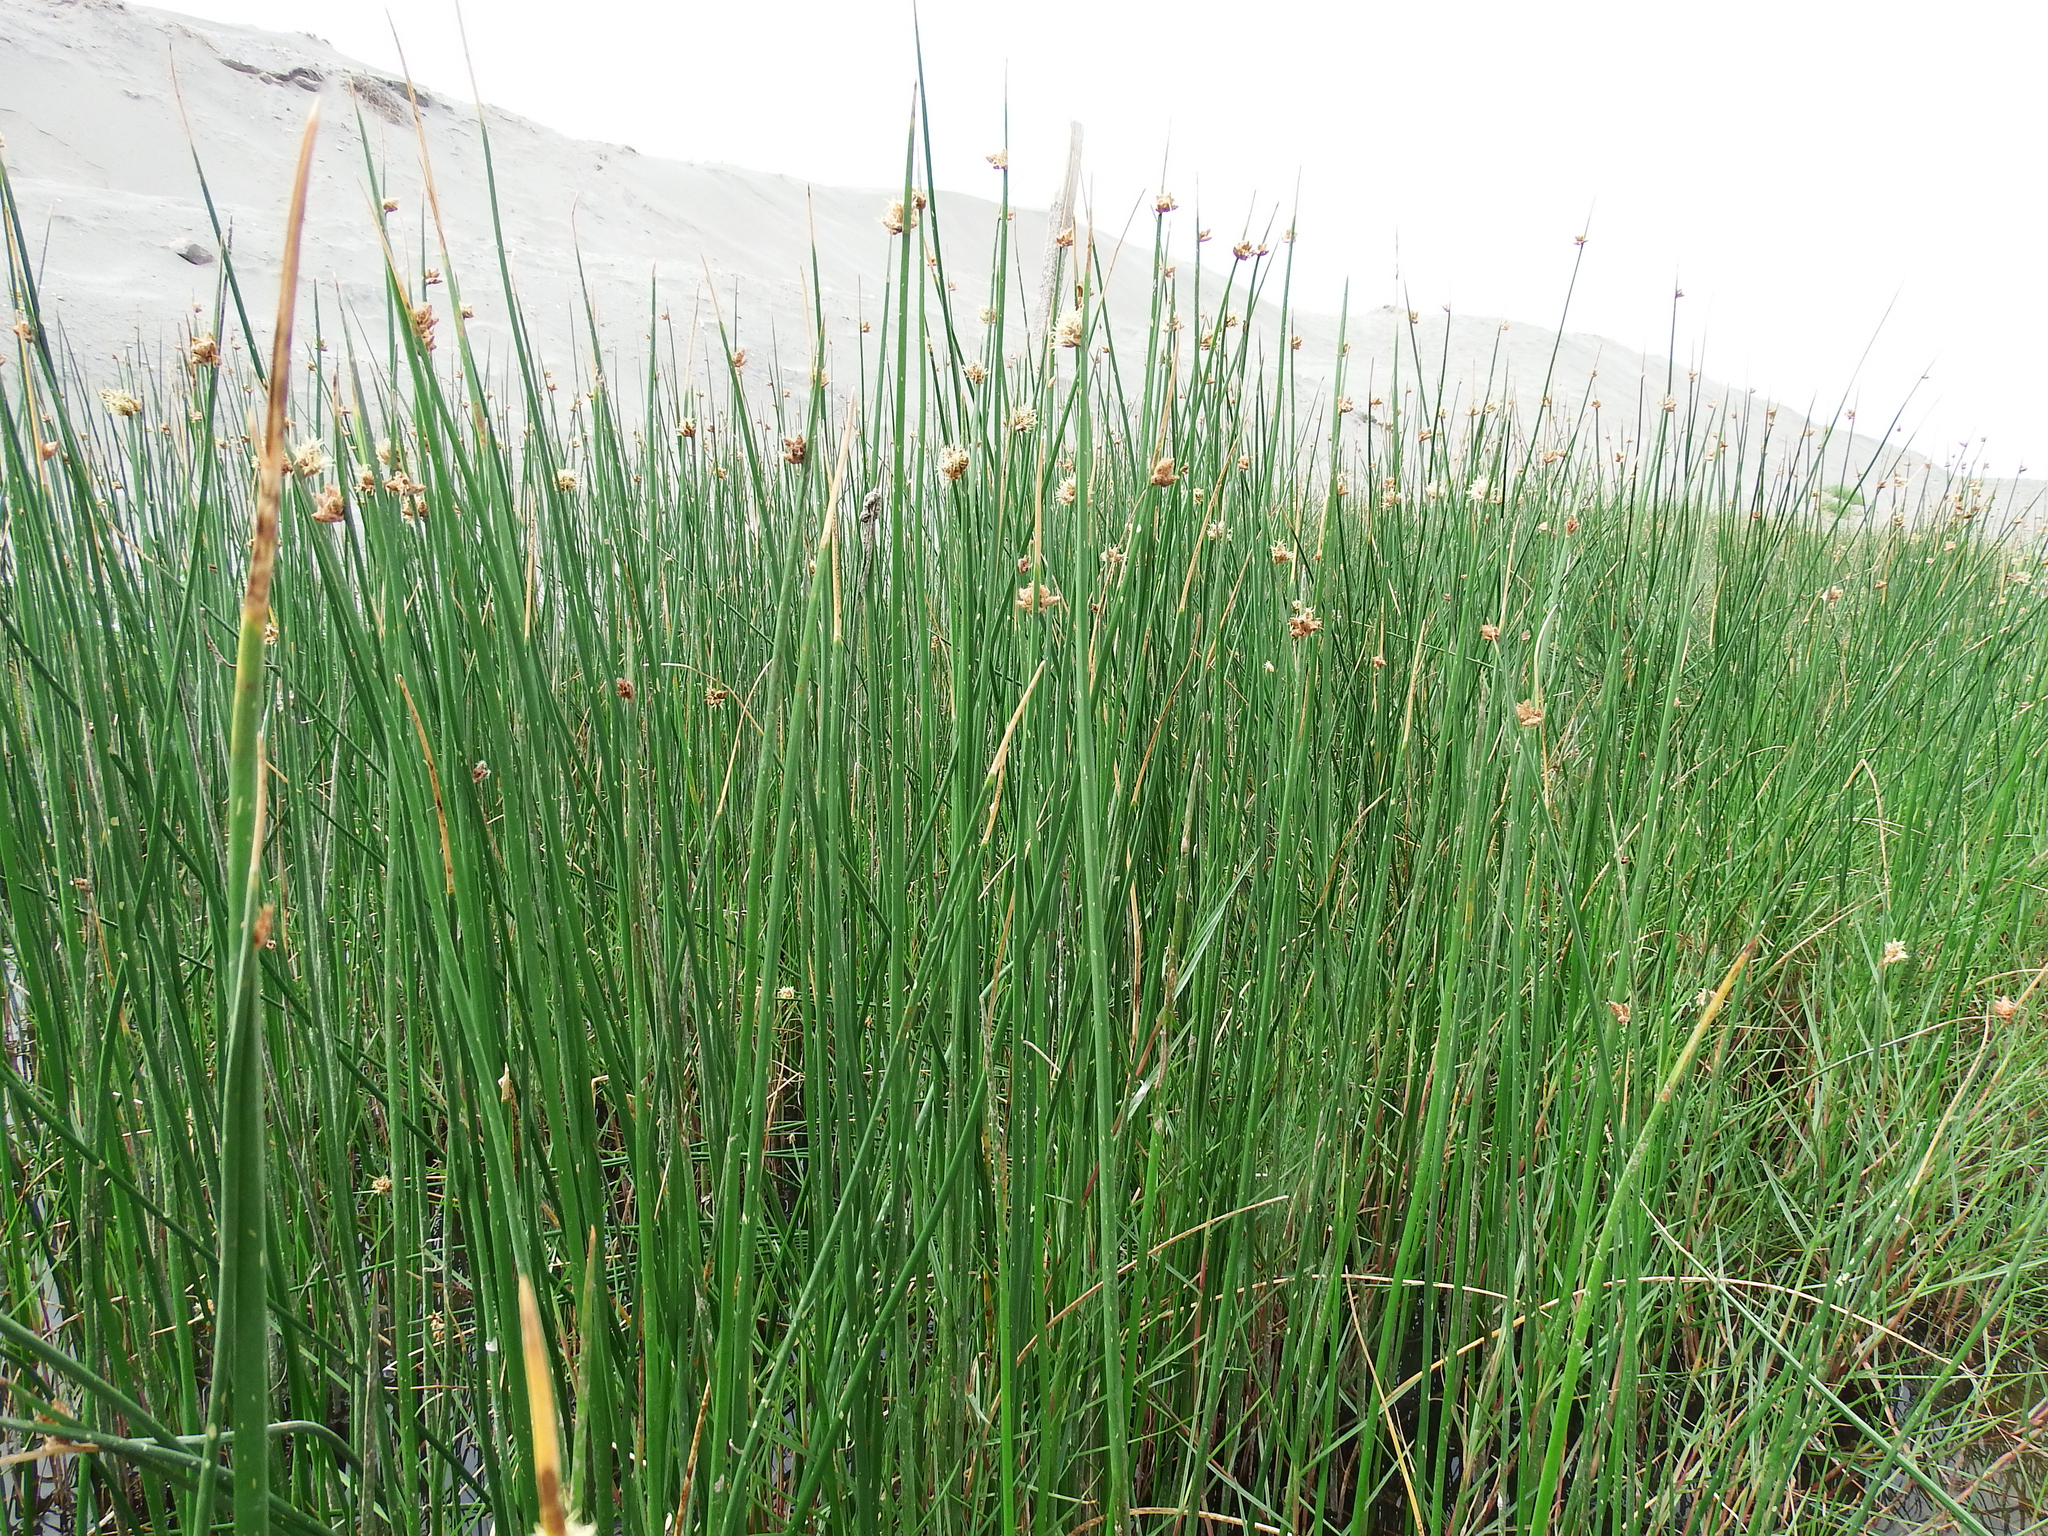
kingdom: Plantae
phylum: Tracheophyta
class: Liliopsida
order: Poales
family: Cyperaceae
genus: Schoenoplectus
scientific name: Schoenoplectus americanus
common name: American three-square bulrush
